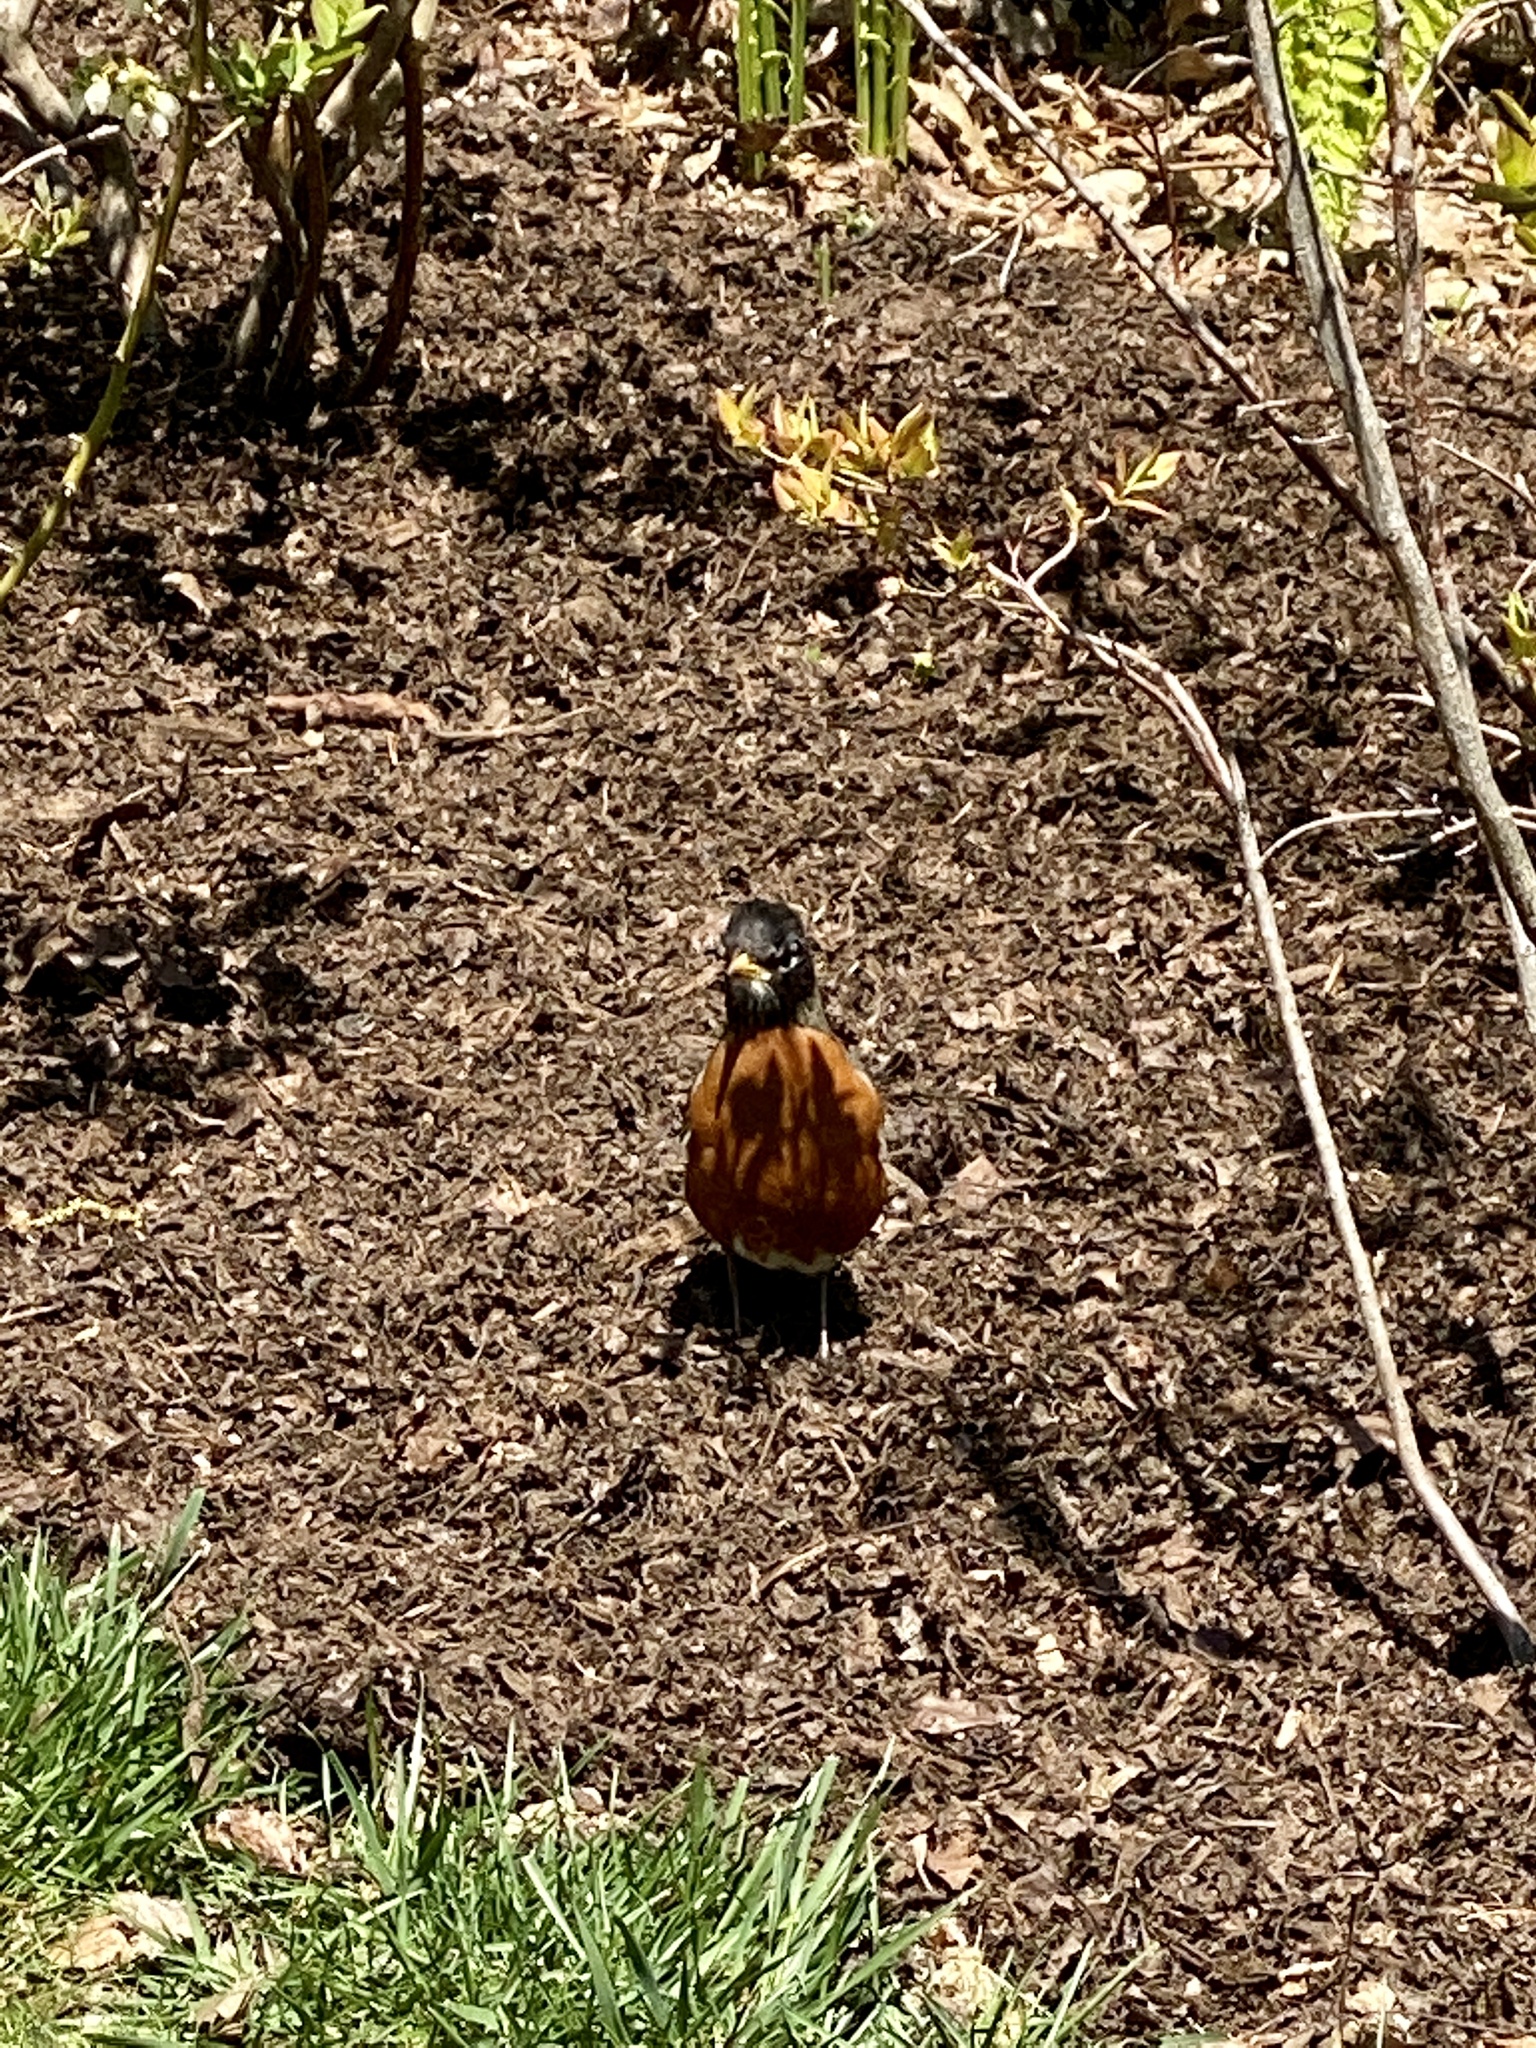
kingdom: Animalia
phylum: Chordata
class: Aves
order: Passeriformes
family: Turdidae
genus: Turdus
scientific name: Turdus migratorius
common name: American robin
